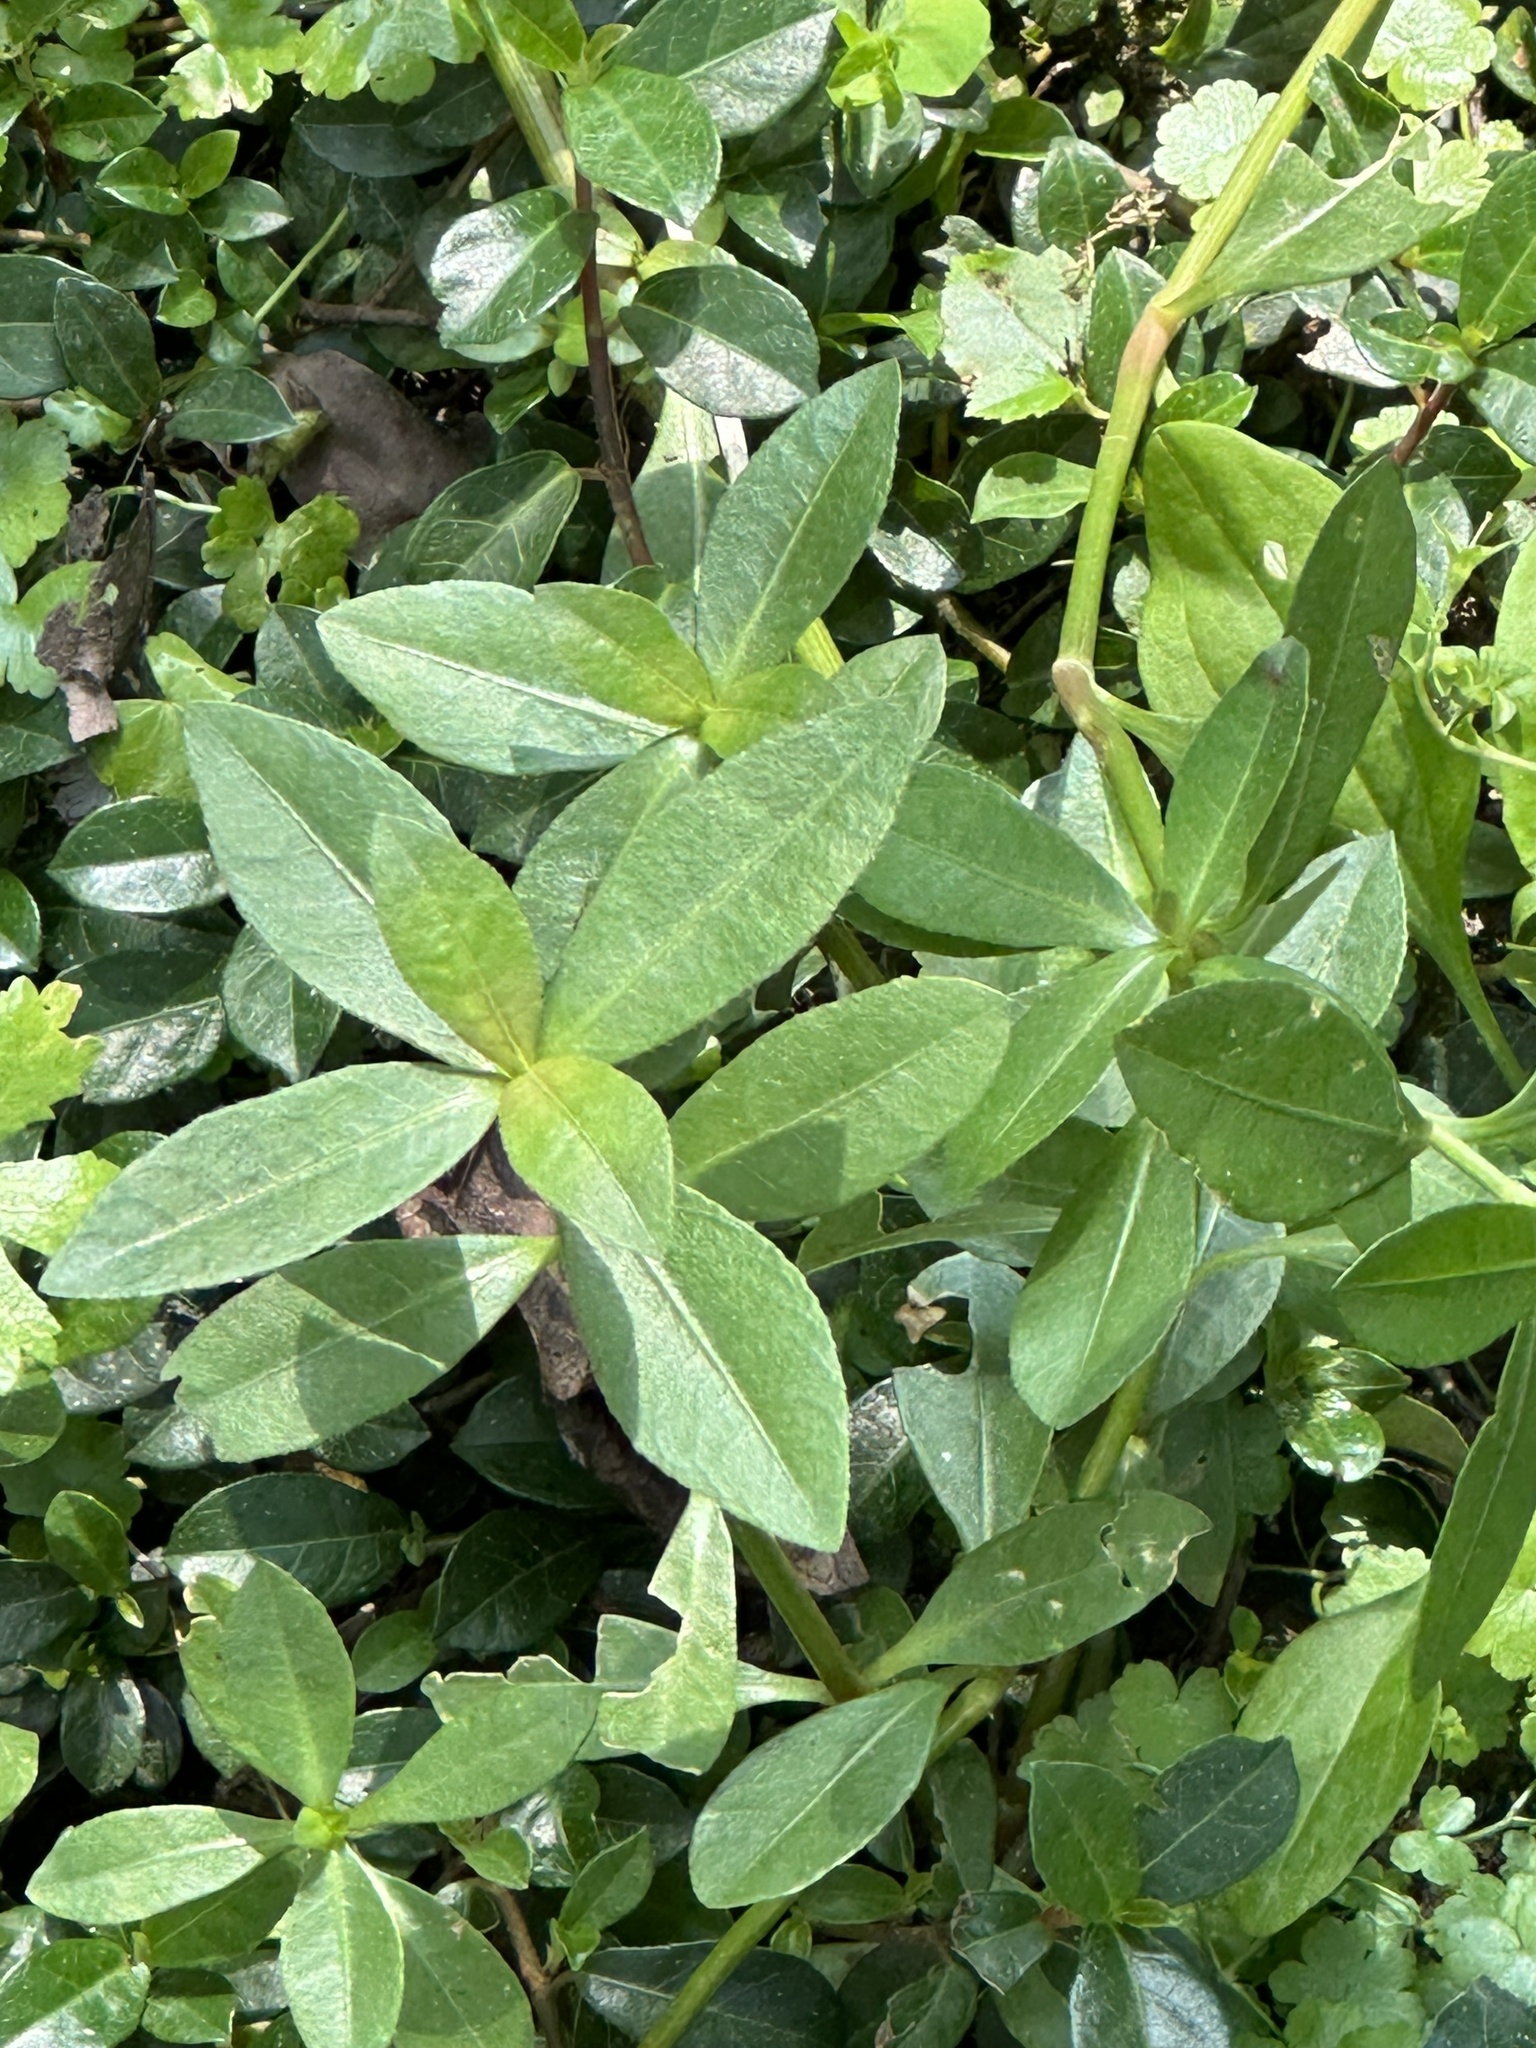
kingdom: Plantae
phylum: Tracheophyta
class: Magnoliopsida
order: Caryophyllales
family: Amaranthaceae
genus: Alternanthera
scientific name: Alternanthera philoxeroides
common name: Alligatorweed
